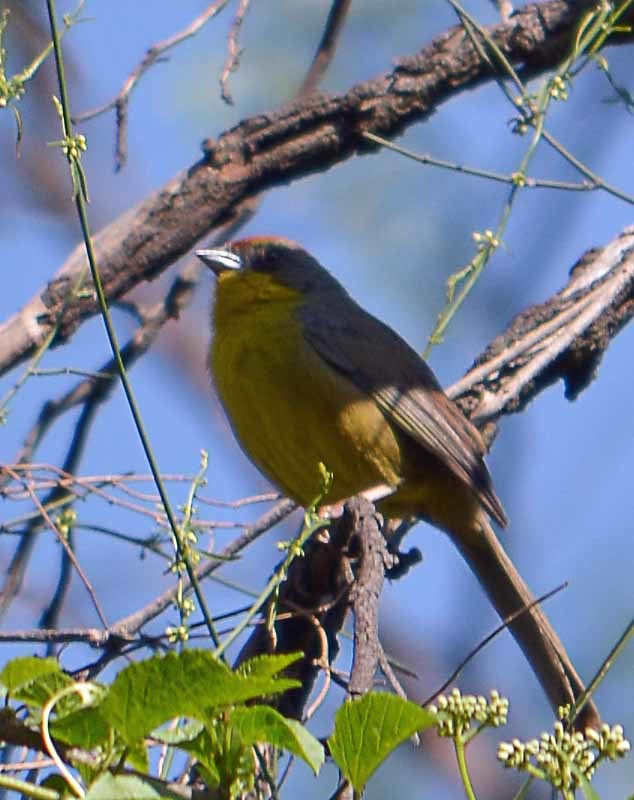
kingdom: Animalia
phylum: Chordata
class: Aves
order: Passeriformes
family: Passerellidae
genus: Atlapetes
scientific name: Atlapetes pileatus
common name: Rufous-capped brush-finch
